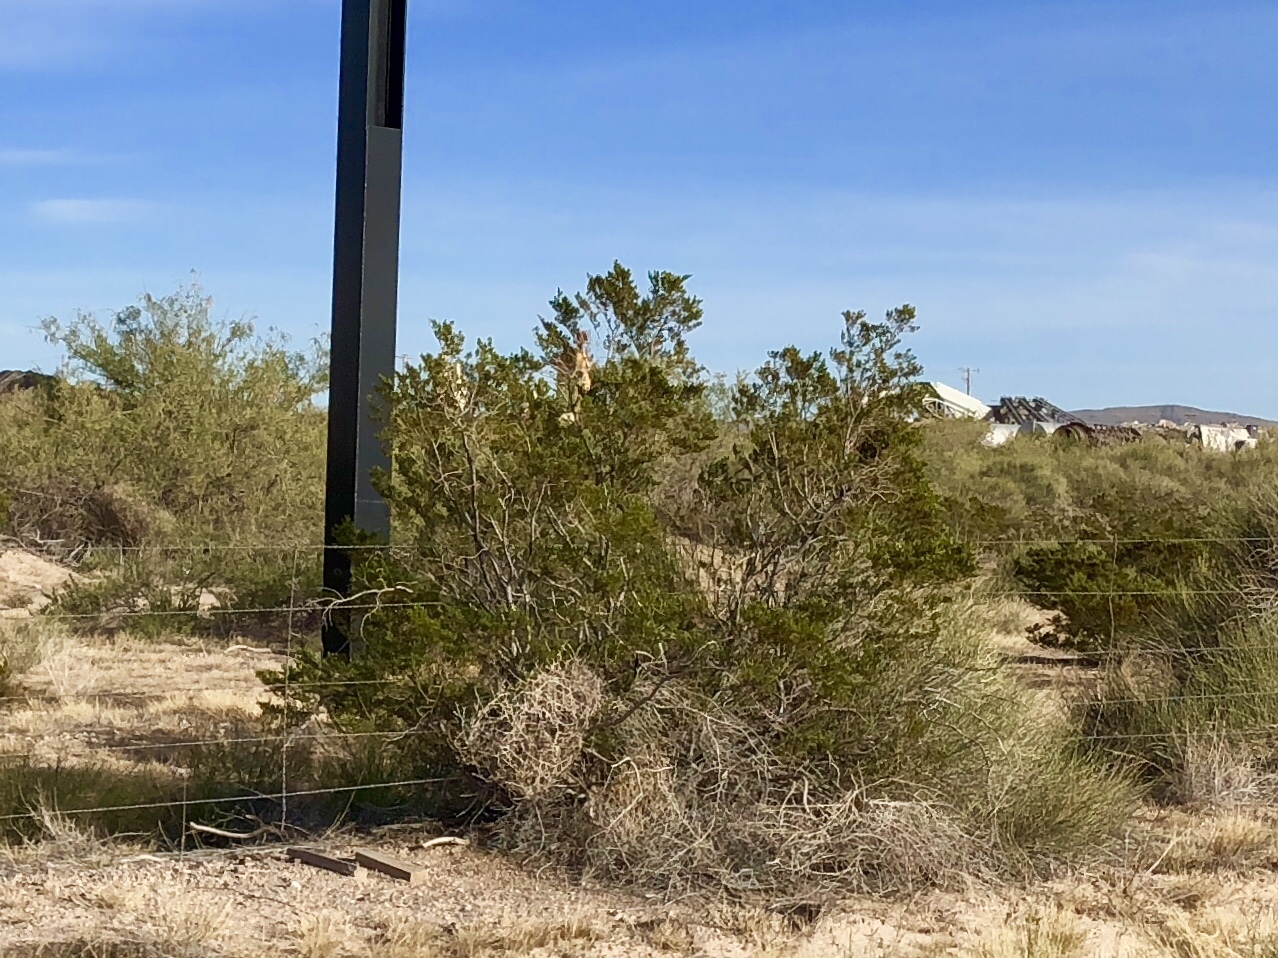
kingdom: Plantae
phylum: Tracheophyta
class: Magnoliopsida
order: Zygophyllales
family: Zygophyllaceae
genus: Larrea
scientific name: Larrea tridentata
